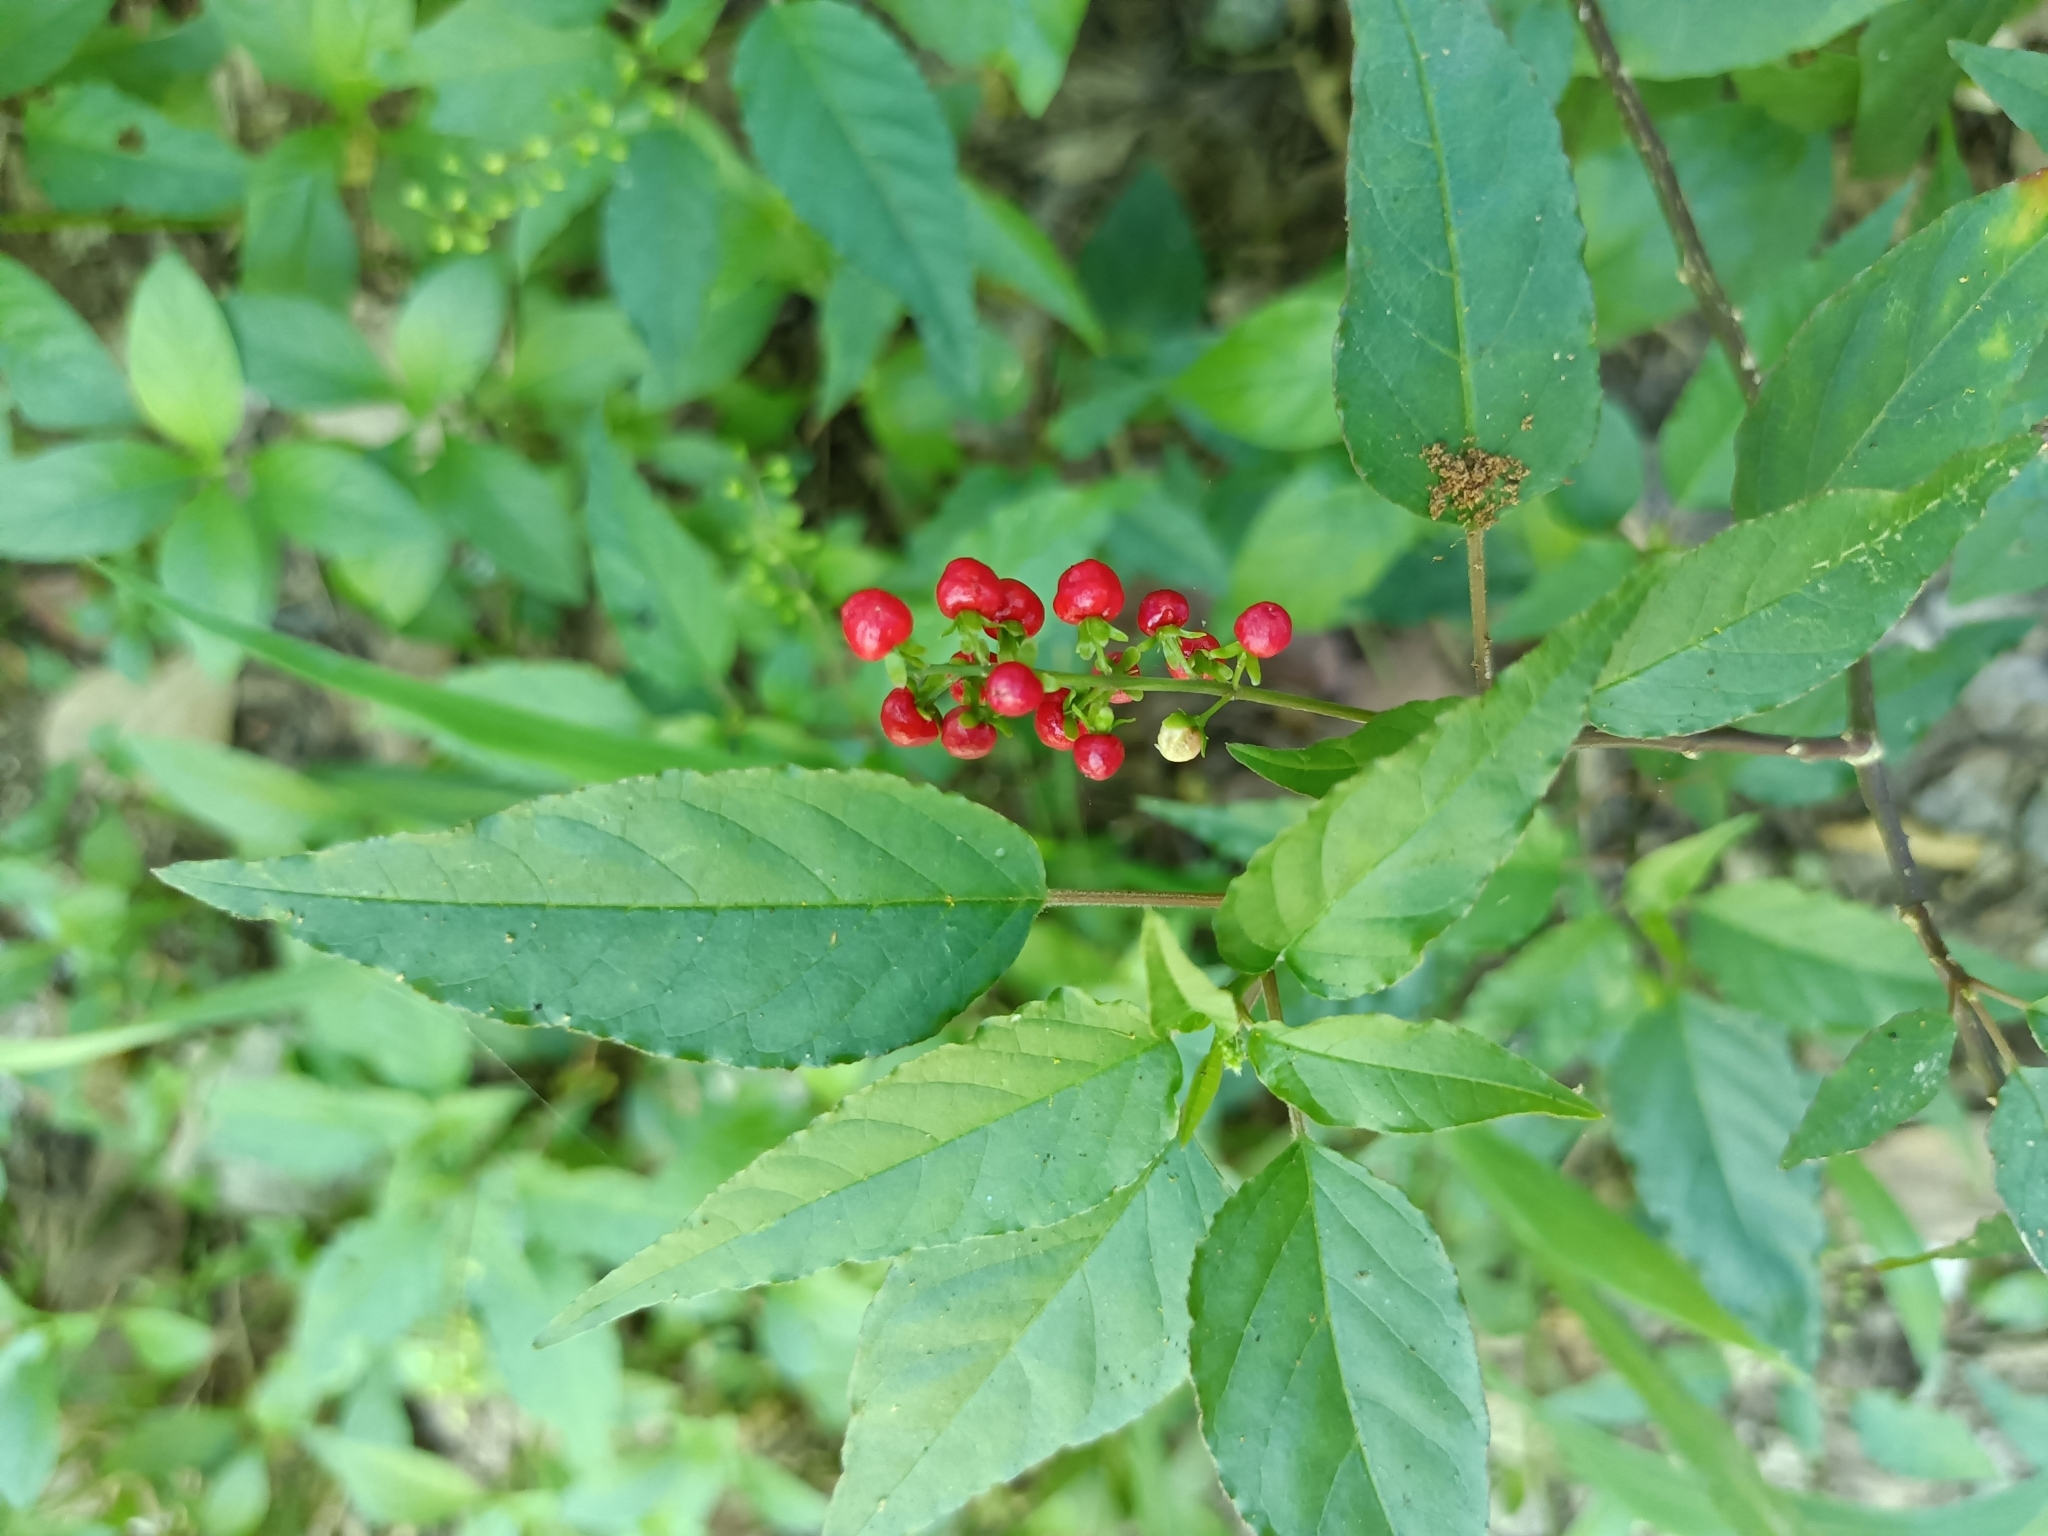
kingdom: Plantae
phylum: Tracheophyta
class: Magnoliopsida
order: Caryophyllales
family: Phytolaccaceae
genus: Rivina
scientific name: Rivina humilis
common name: Rougeplant
